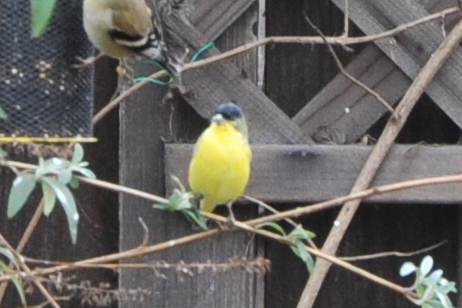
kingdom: Animalia
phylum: Chordata
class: Aves
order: Passeriformes
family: Fringillidae
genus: Spinus
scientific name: Spinus psaltria
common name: Lesser goldfinch
